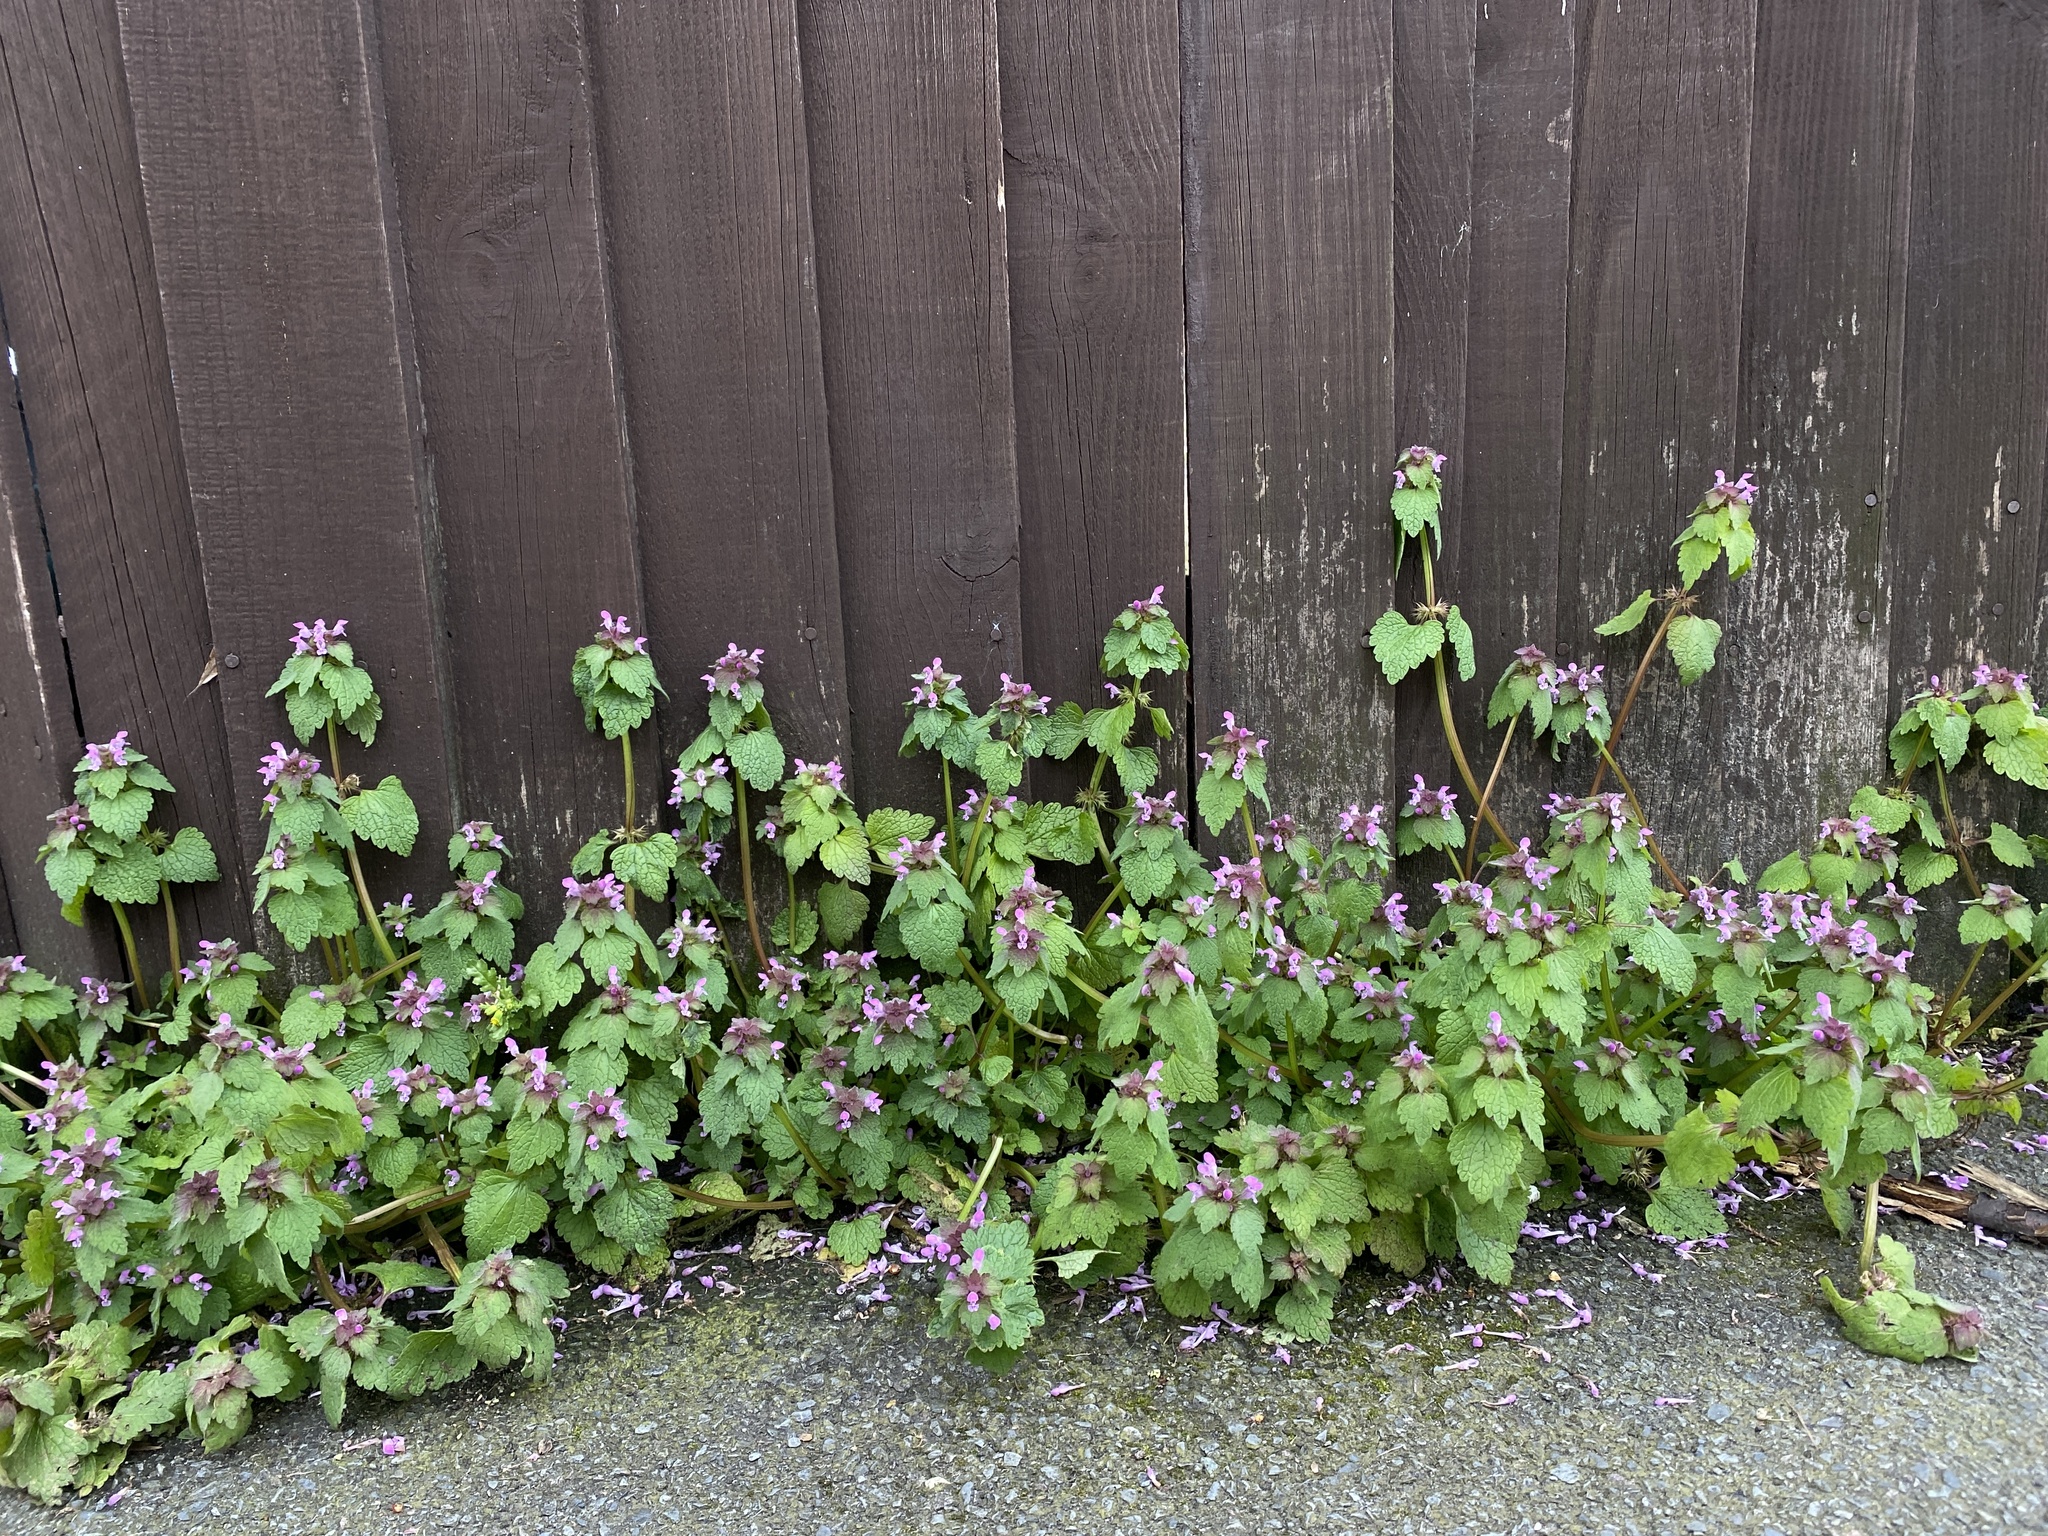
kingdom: Plantae
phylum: Tracheophyta
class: Magnoliopsida
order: Lamiales
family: Lamiaceae
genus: Lamium
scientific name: Lamium purpureum
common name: Red dead-nettle
